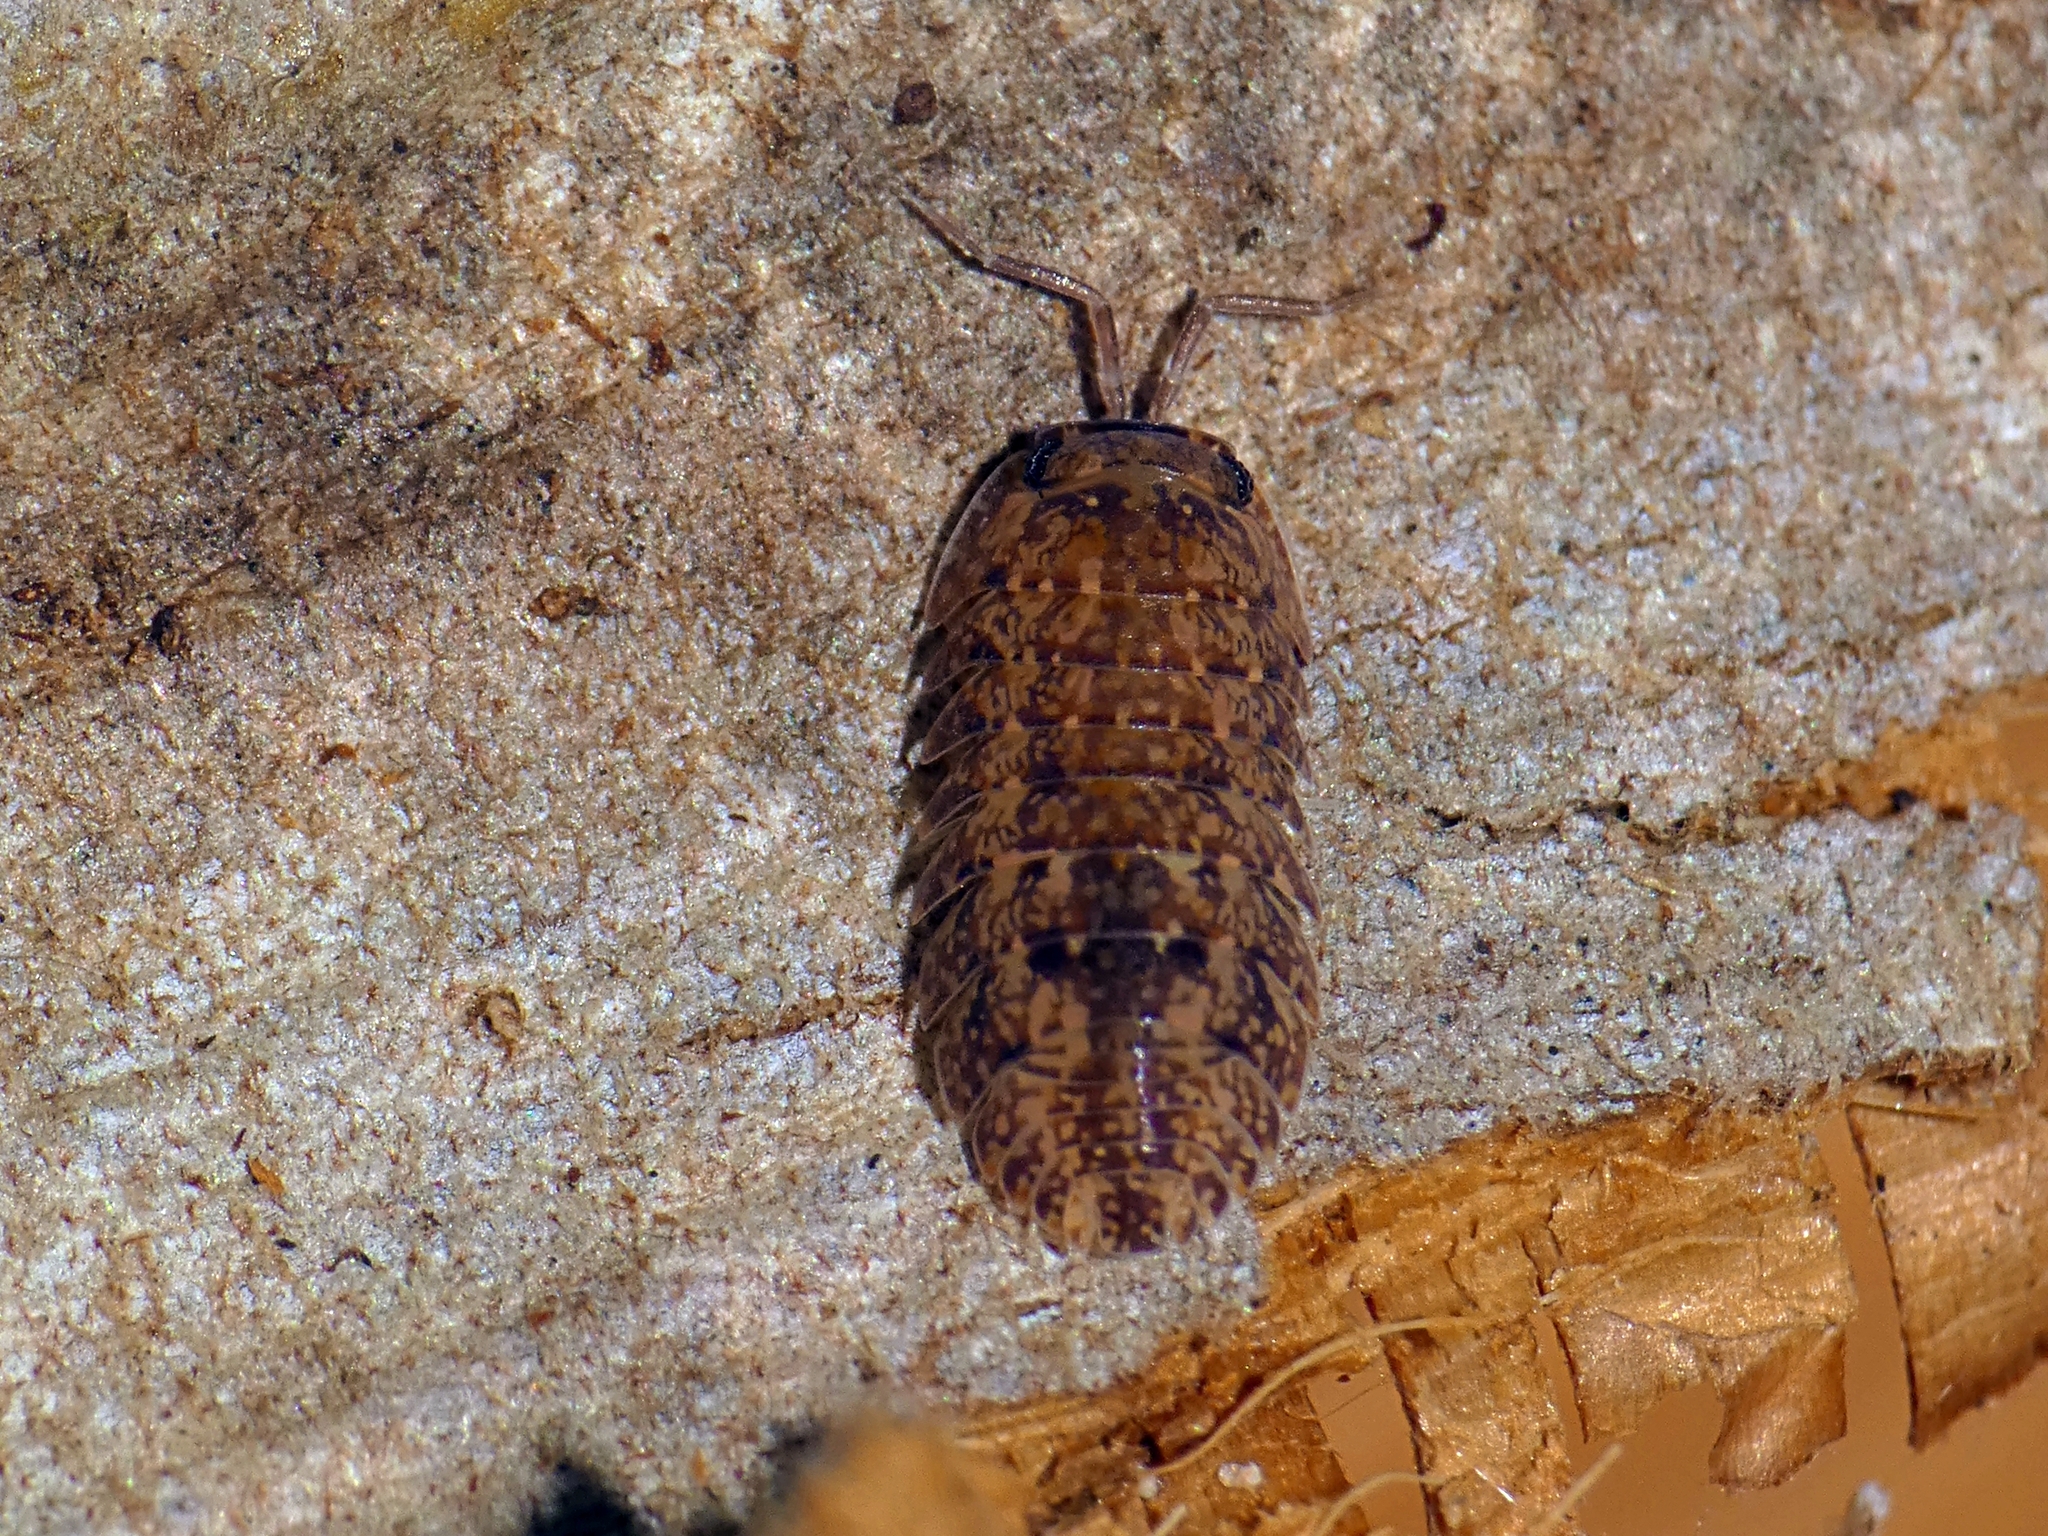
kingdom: Animalia
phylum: Arthropoda
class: Malacostraca
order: Isopoda
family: Armadillidae
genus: Cubaris
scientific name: Cubaris marmorata
